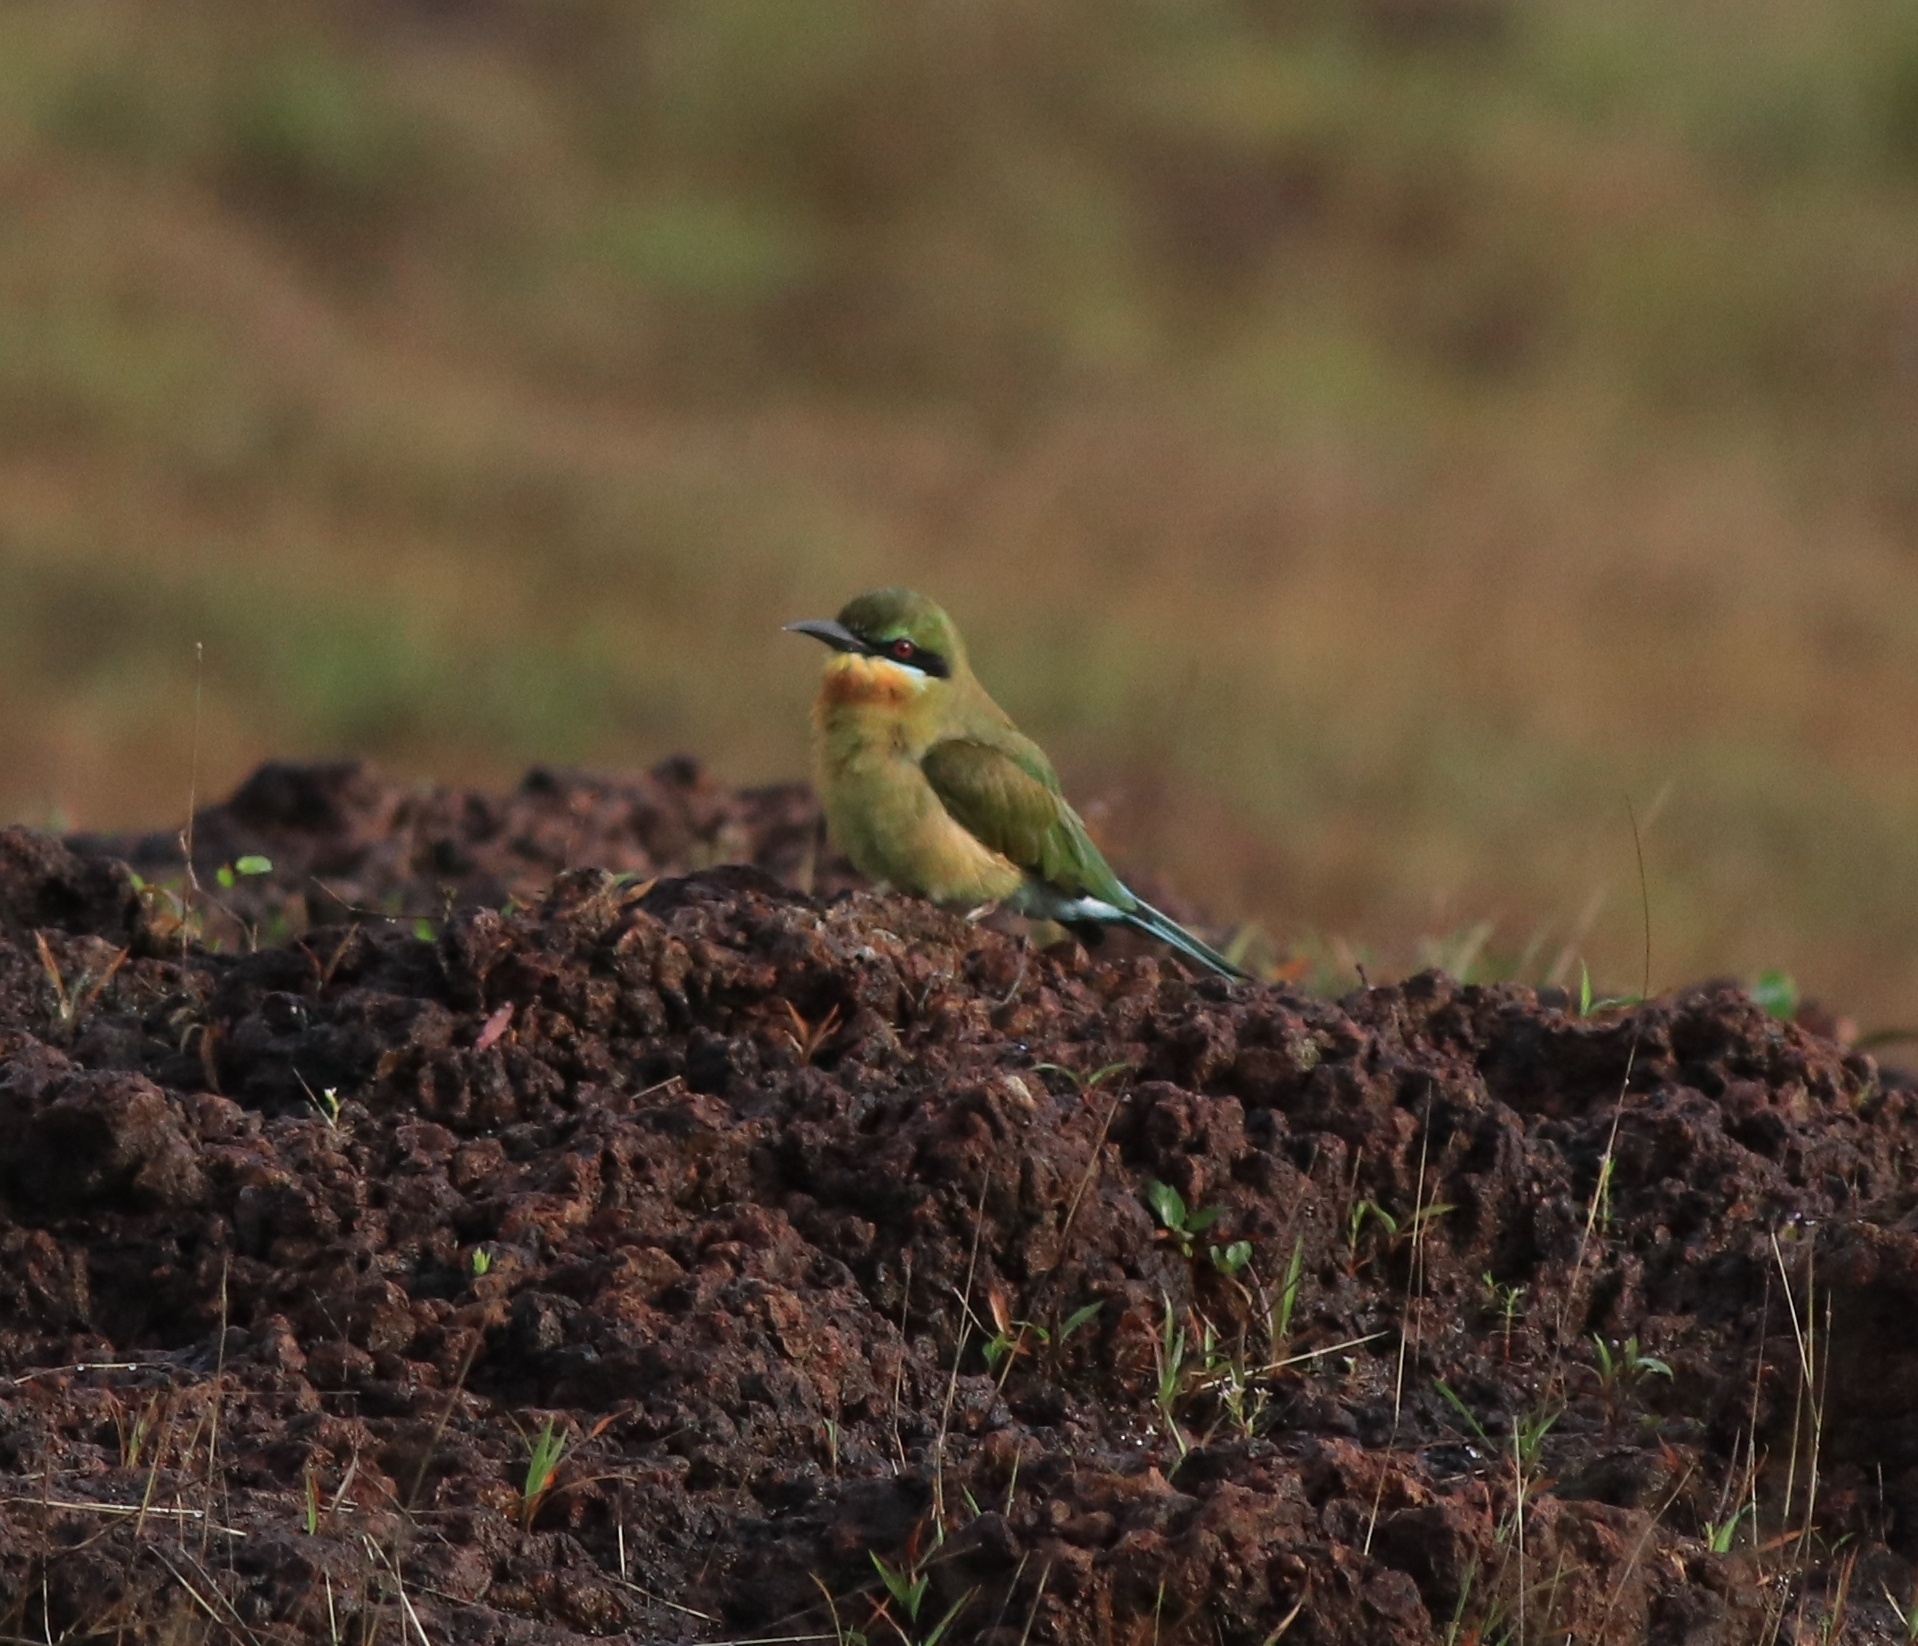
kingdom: Animalia
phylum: Chordata
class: Aves
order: Coraciiformes
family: Meropidae
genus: Merops
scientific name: Merops philippinus
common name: Blue-tailed bee-eater
